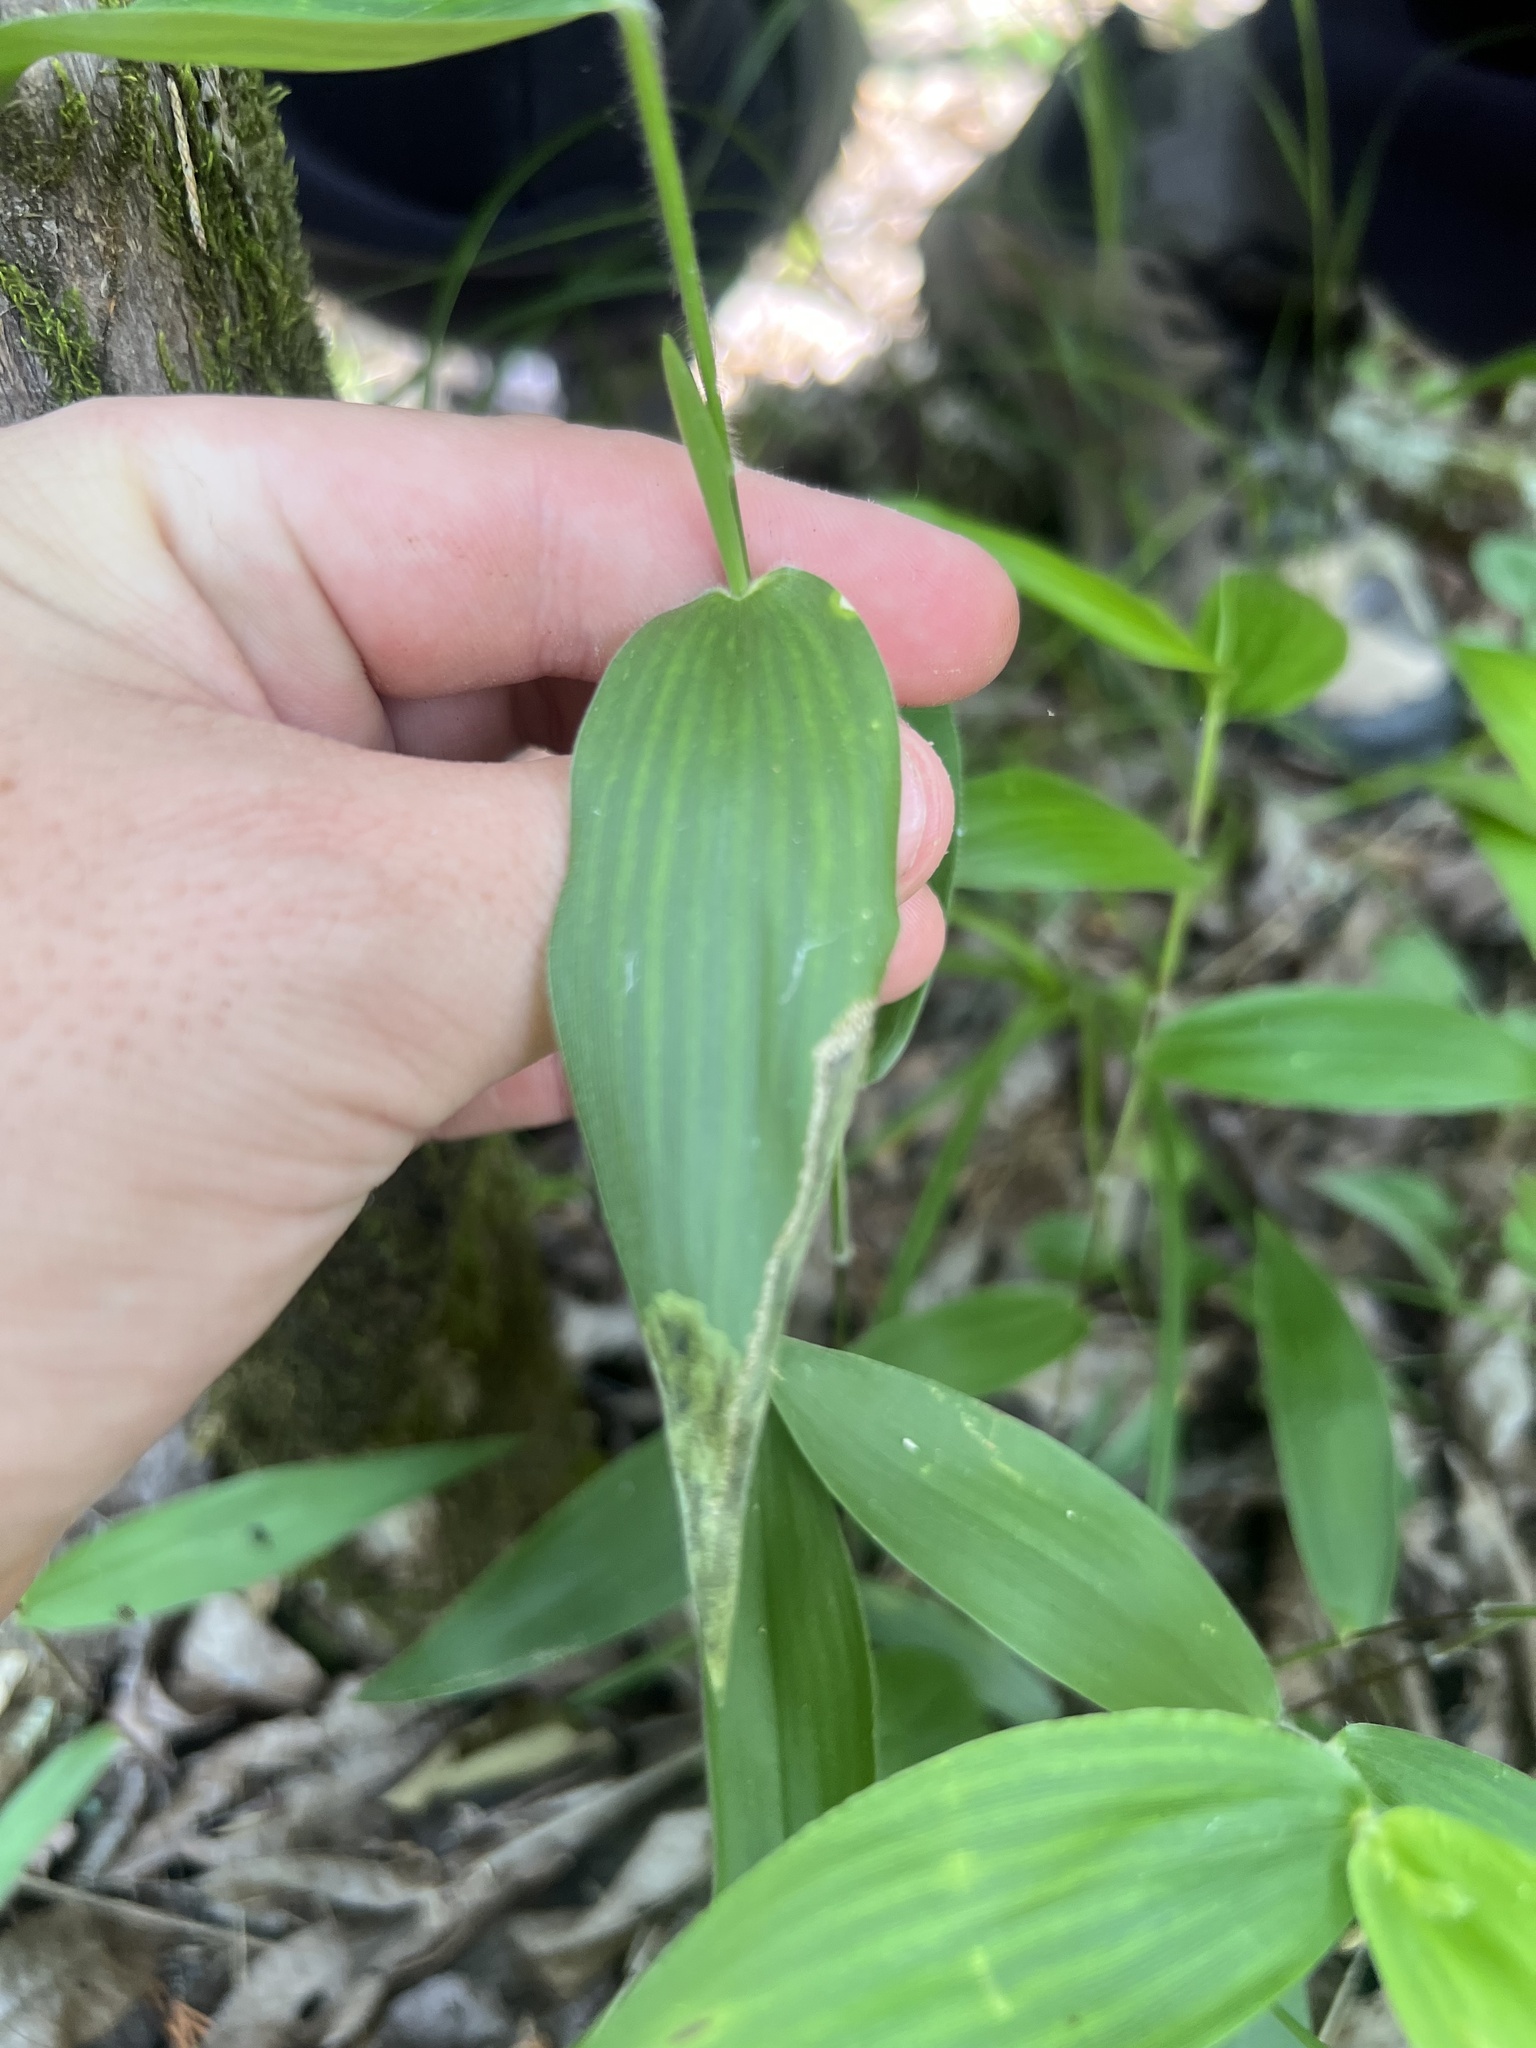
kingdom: Plantae
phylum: Tracheophyta
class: Liliopsida
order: Poales
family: Poaceae
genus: Dichanthelium
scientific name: Dichanthelium boscii
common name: Bosc's panic grass
